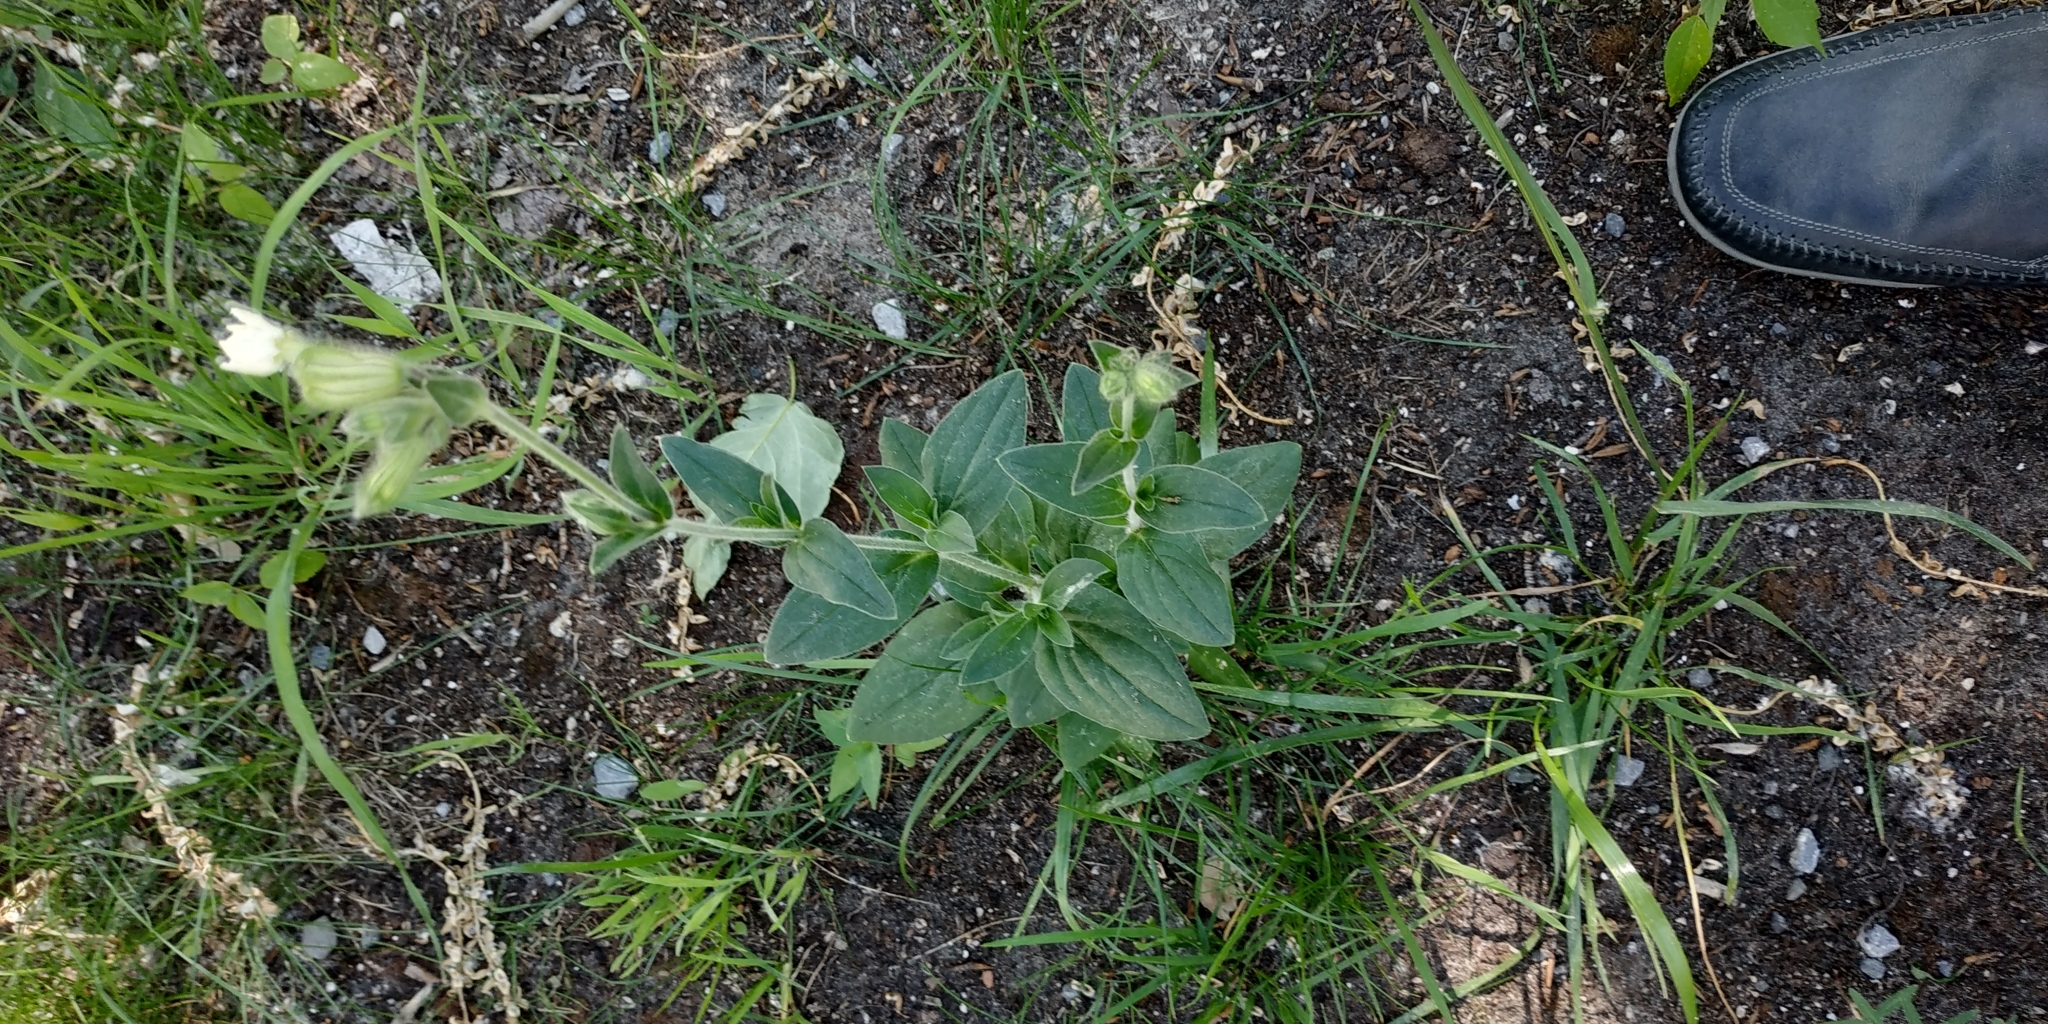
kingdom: Plantae
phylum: Tracheophyta
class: Magnoliopsida
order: Caryophyllales
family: Caryophyllaceae
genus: Silene
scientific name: Silene latifolia
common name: White campion
